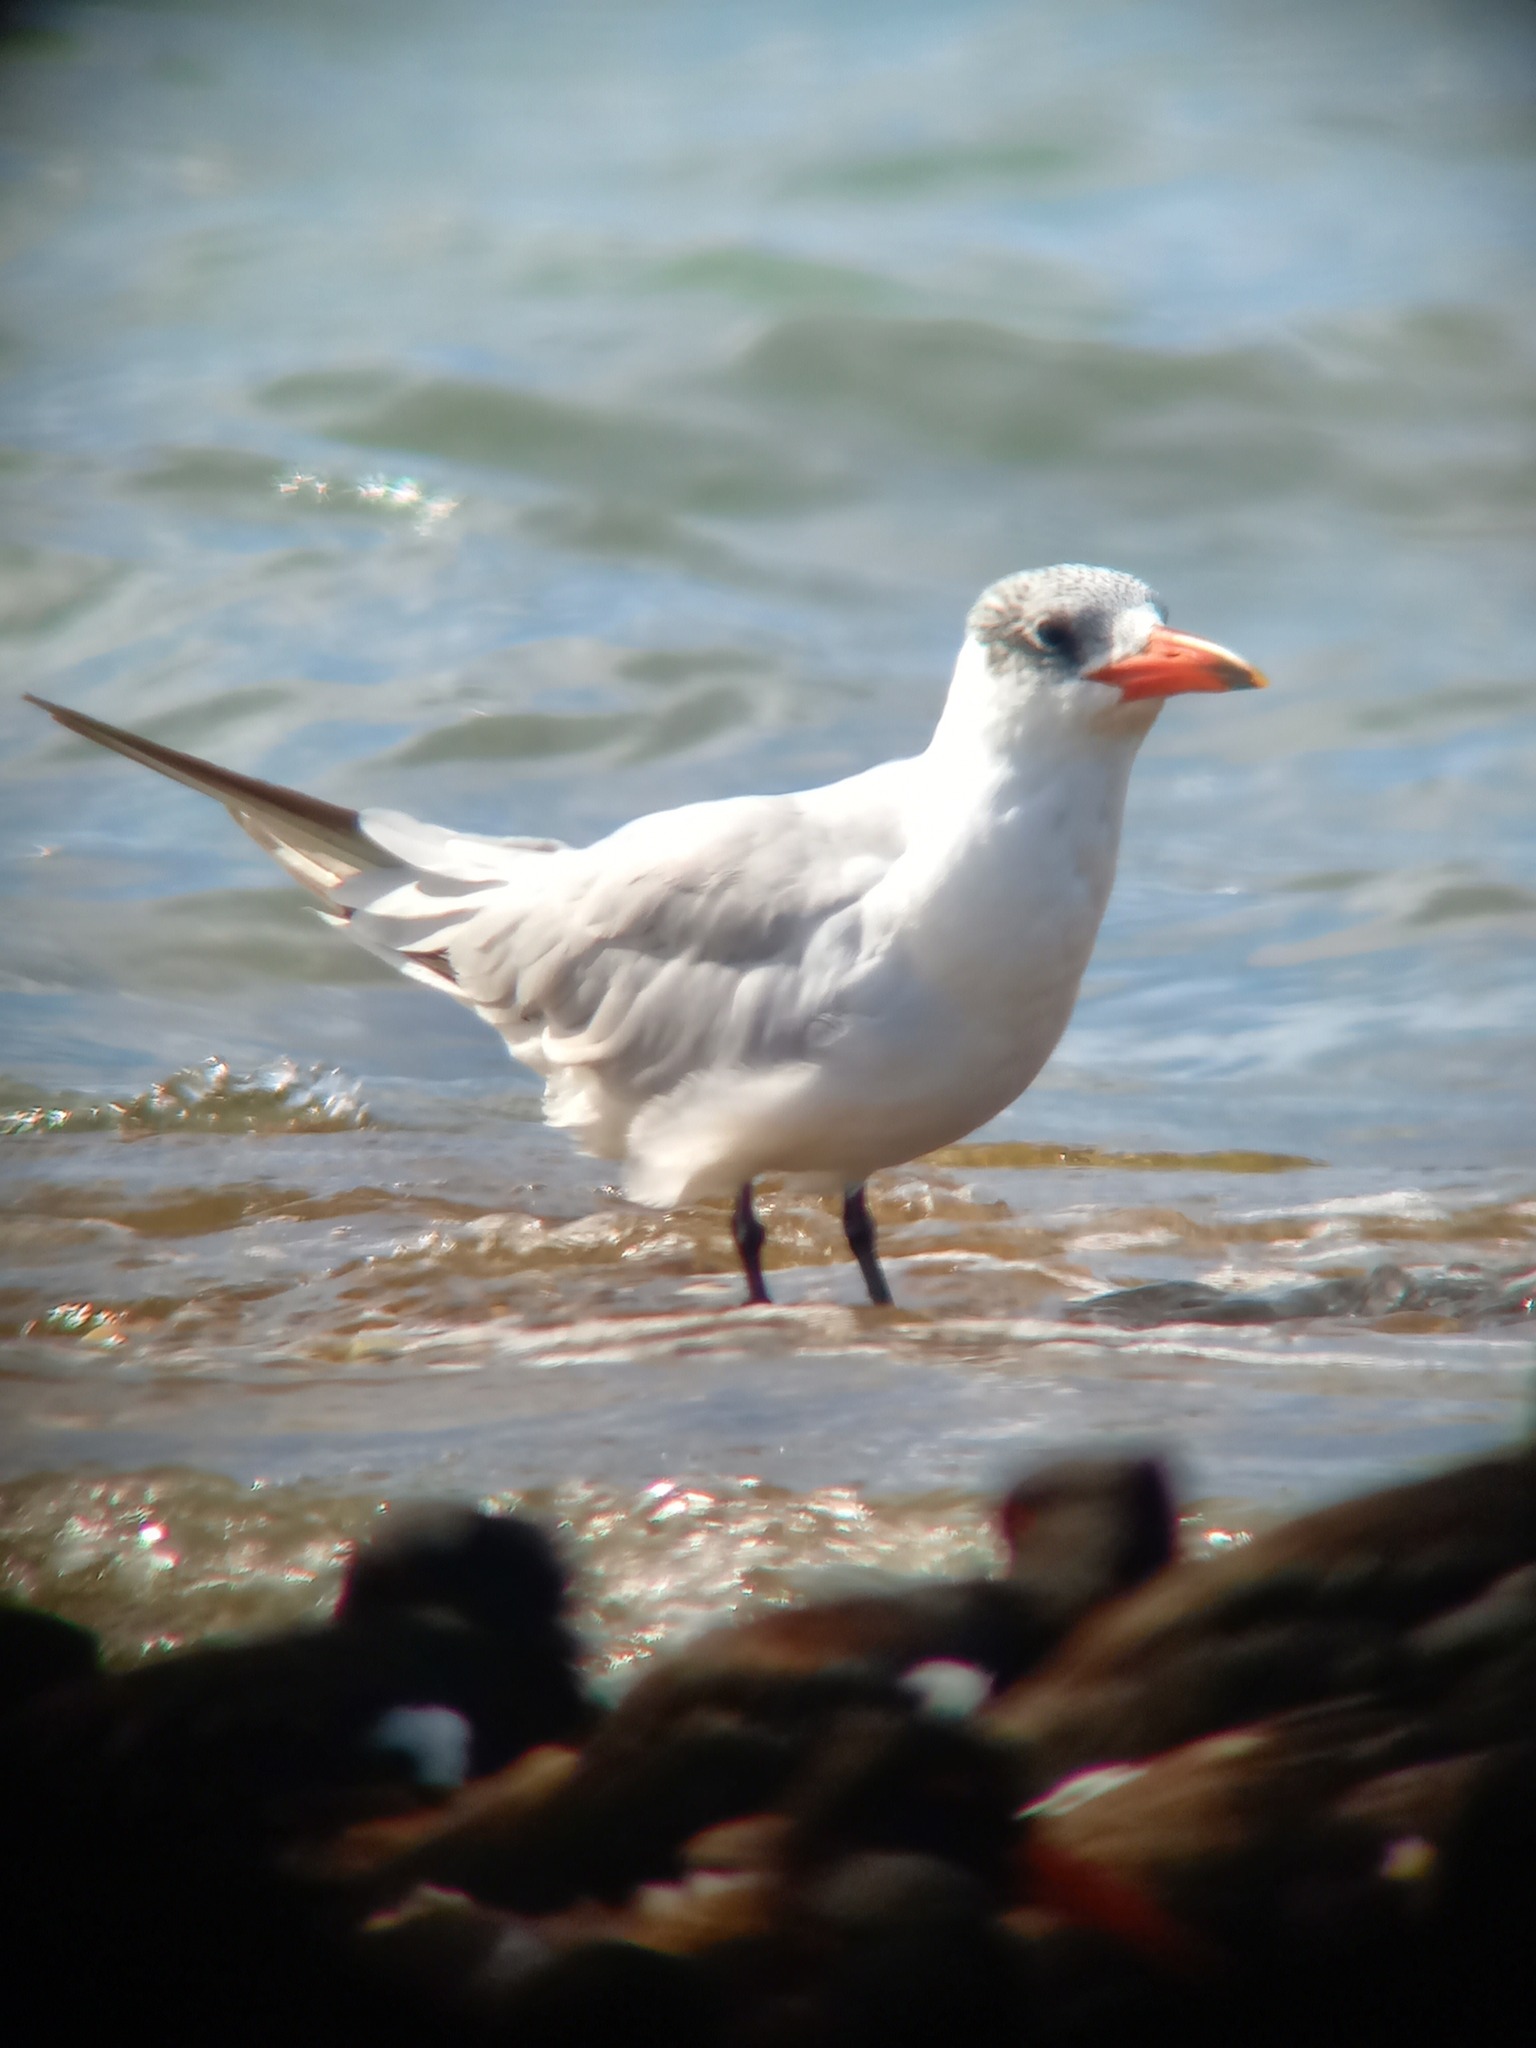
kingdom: Animalia
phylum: Chordata
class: Aves
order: Charadriiformes
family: Laridae
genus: Hydroprogne
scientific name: Hydroprogne caspia
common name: Caspian tern
